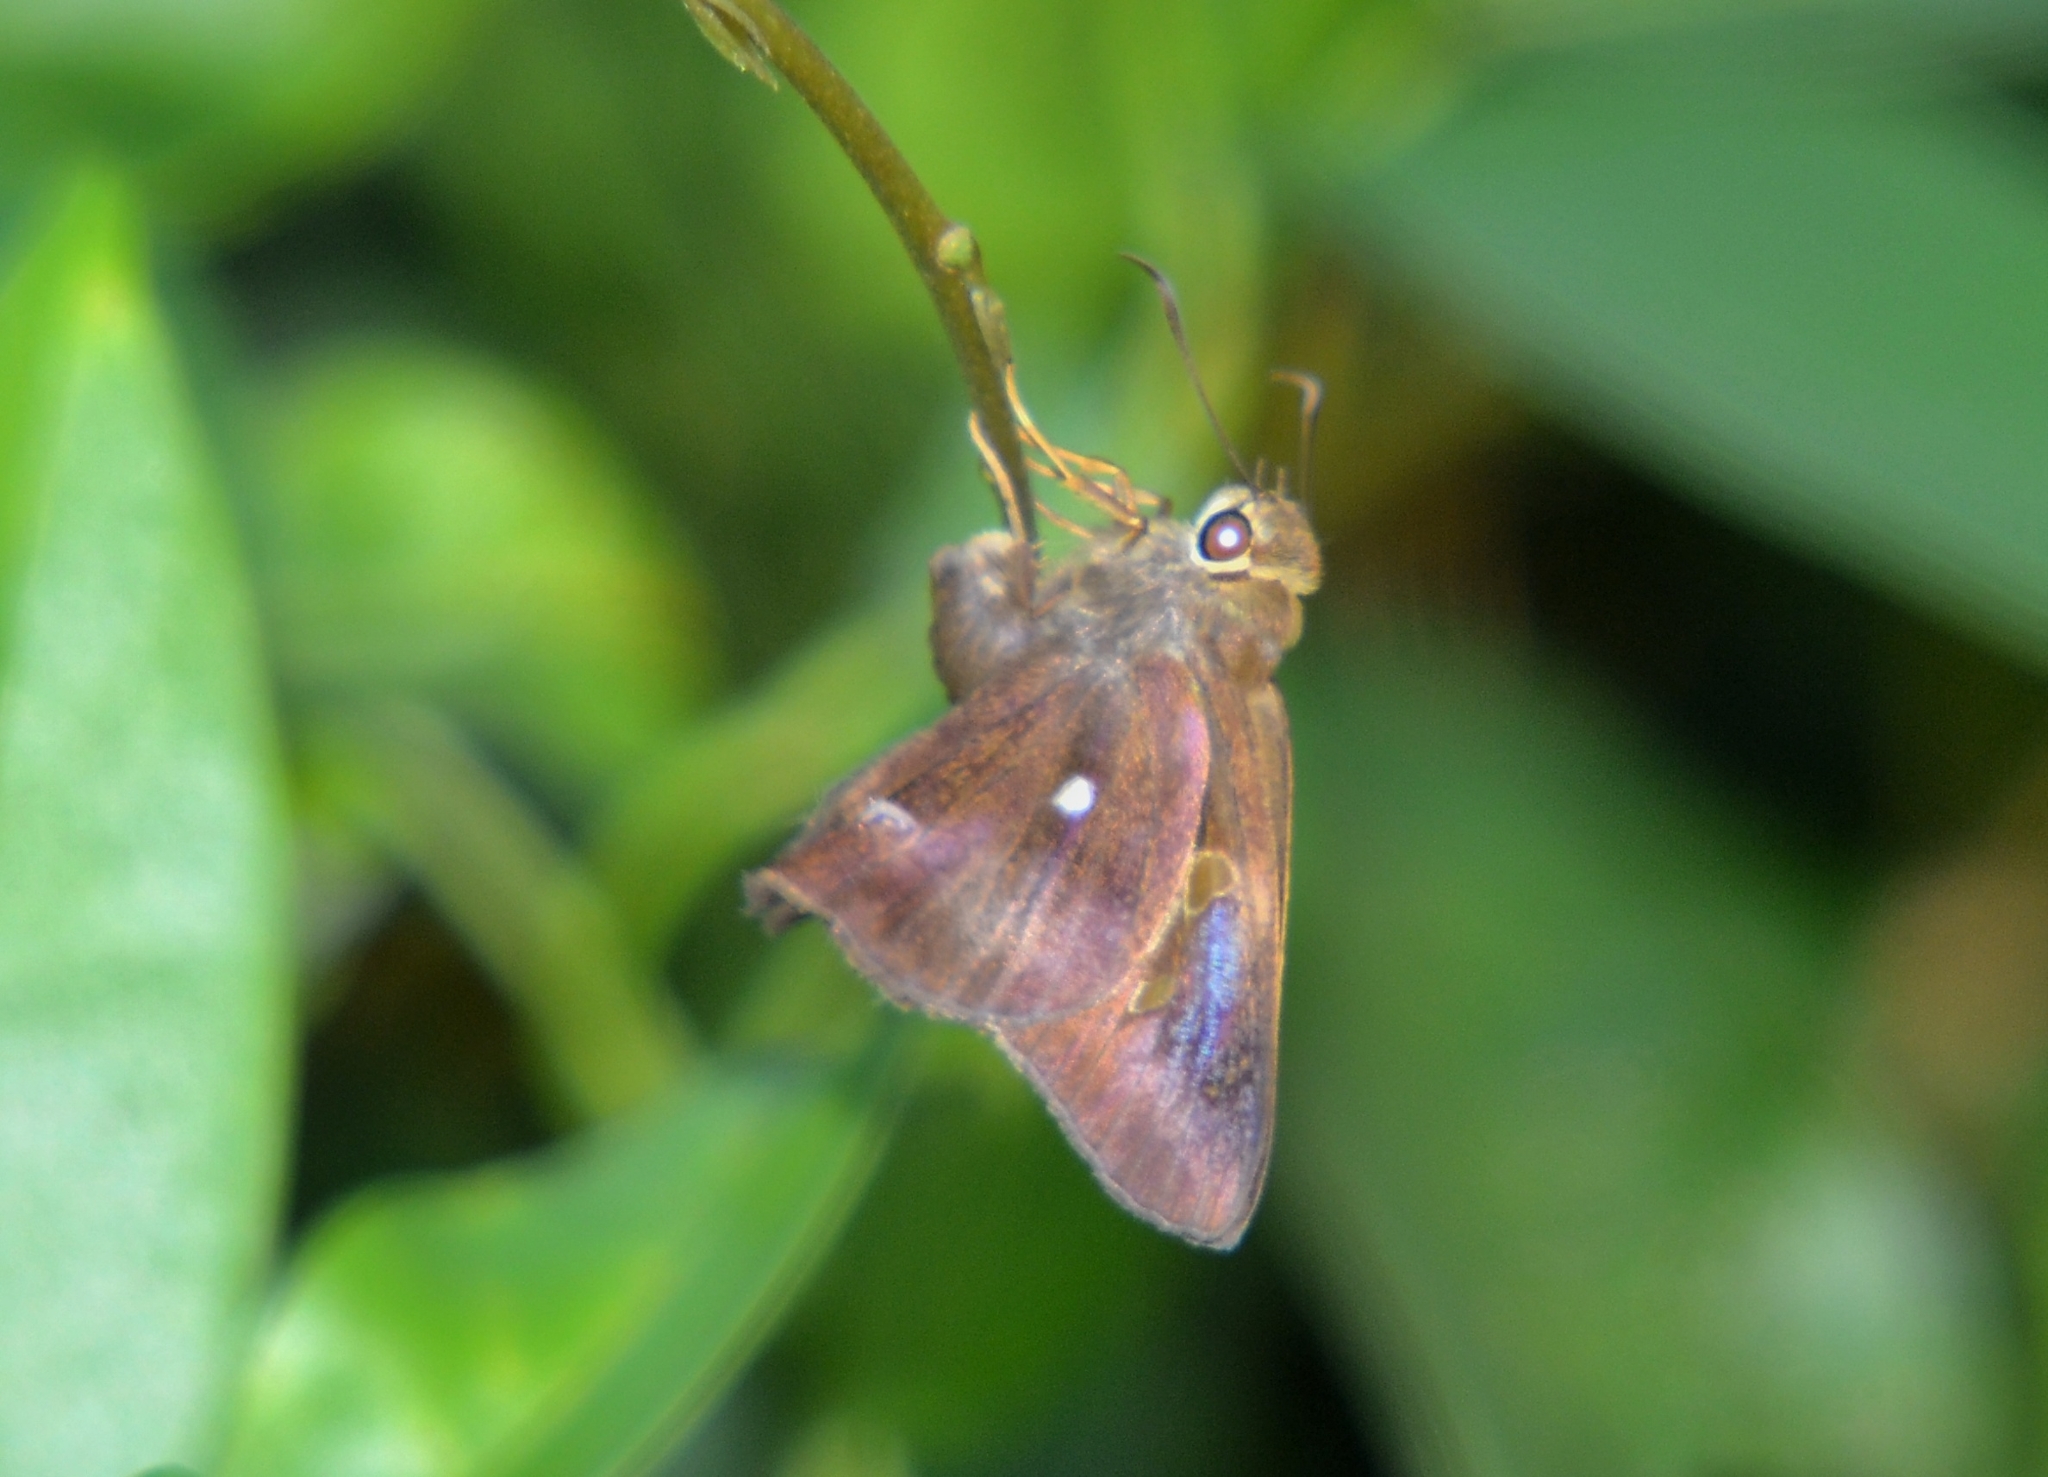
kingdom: Animalia
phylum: Arthropoda
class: Insecta
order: Lepidoptera
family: Hesperiidae
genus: Hasora
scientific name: Hasora badra
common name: Common awl
